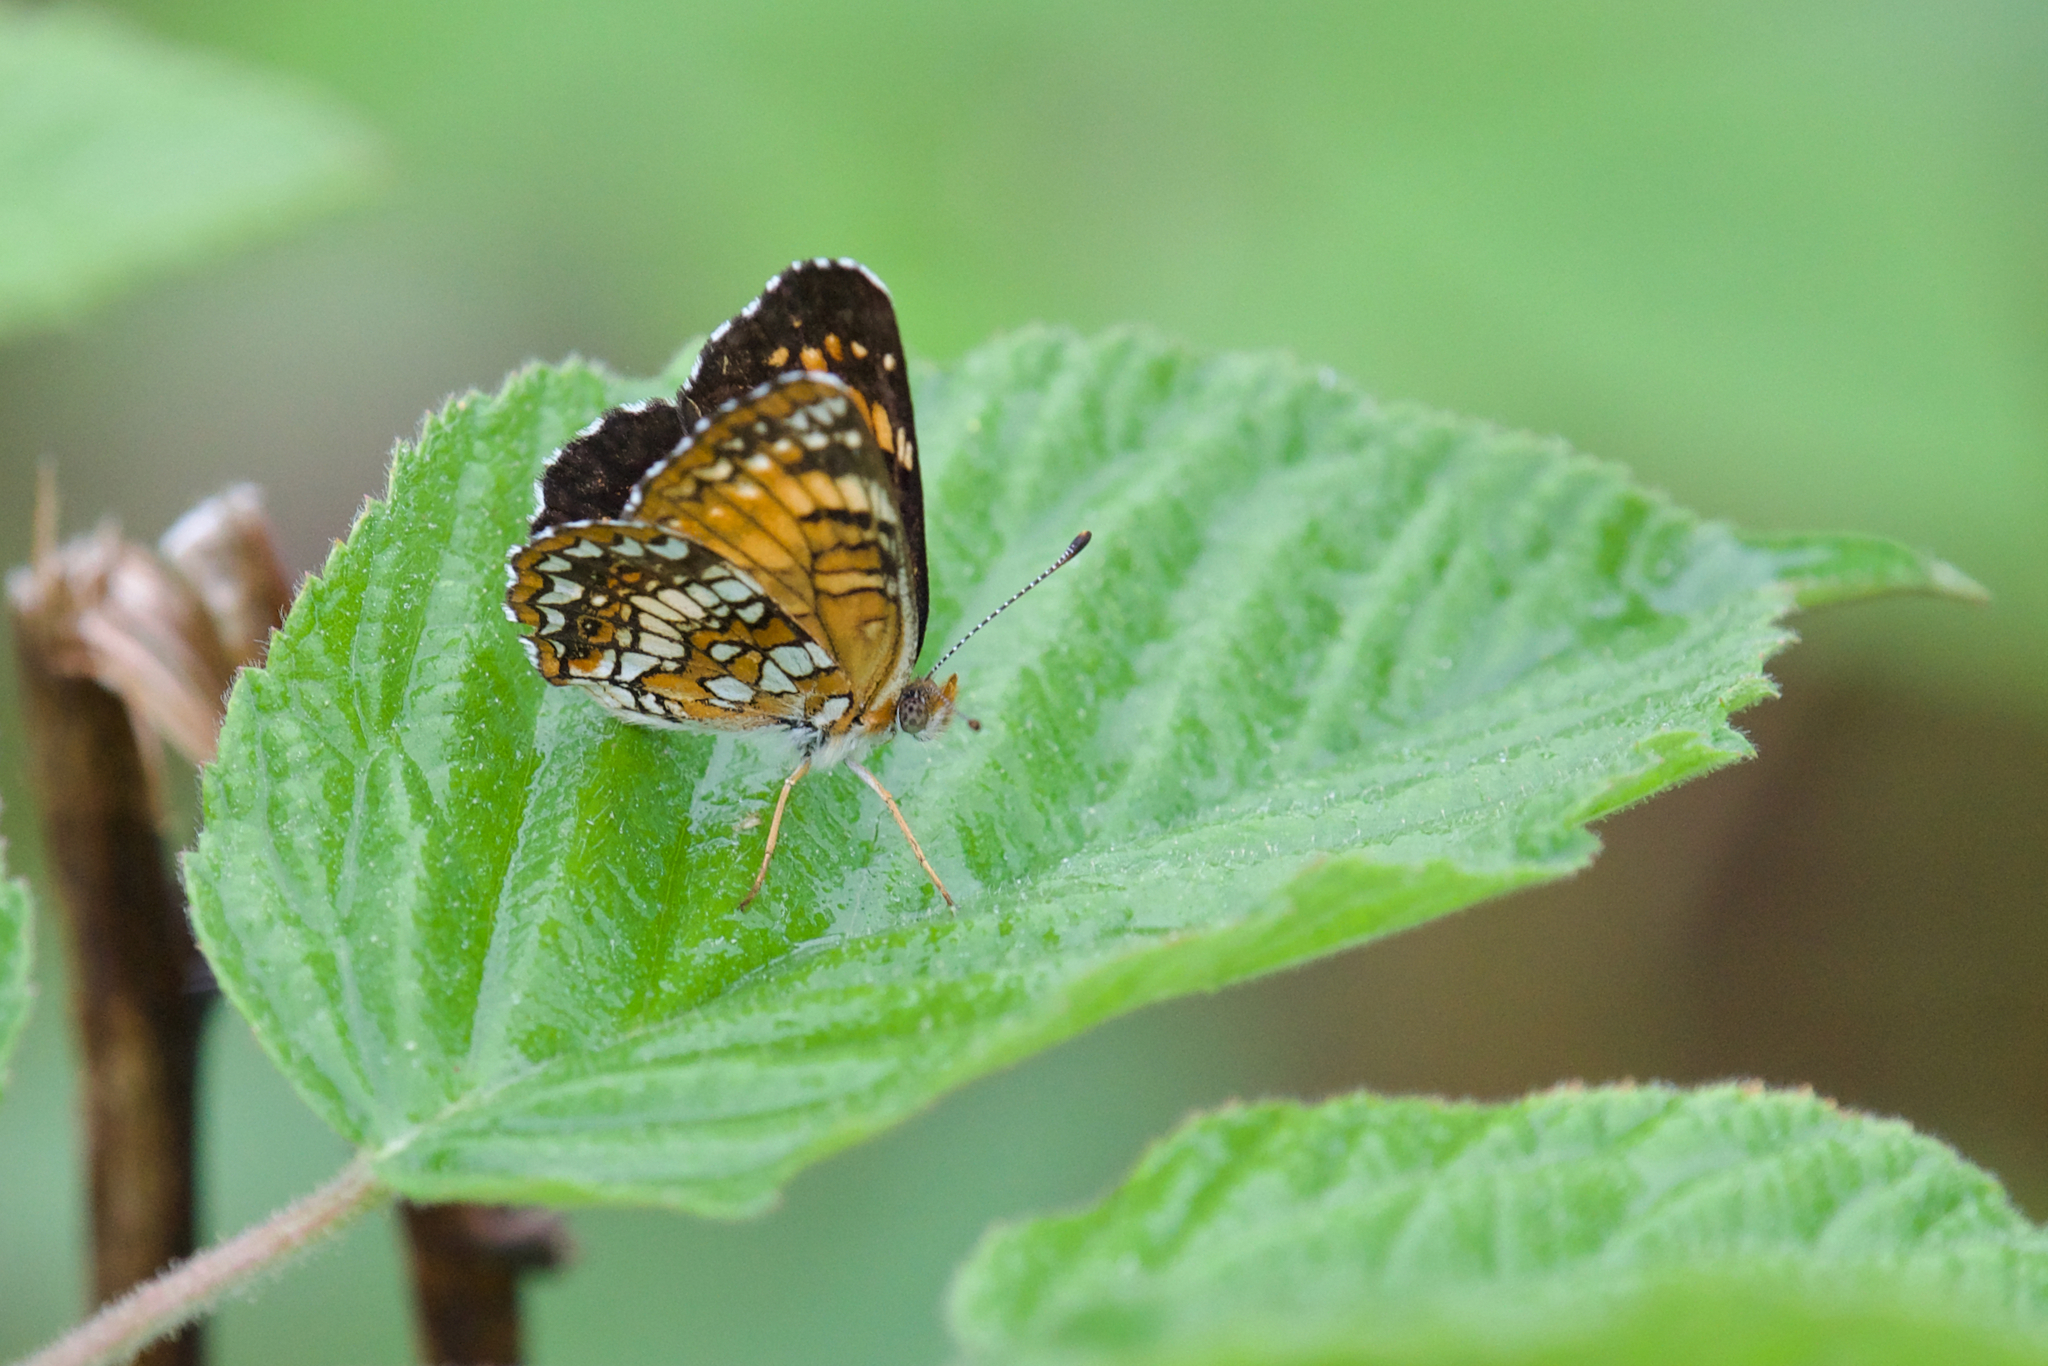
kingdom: Animalia
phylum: Arthropoda
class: Insecta
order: Lepidoptera
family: Nymphalidae
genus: Chlosyne
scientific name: Chlosyne harrisii
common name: Harris's checkerspot
